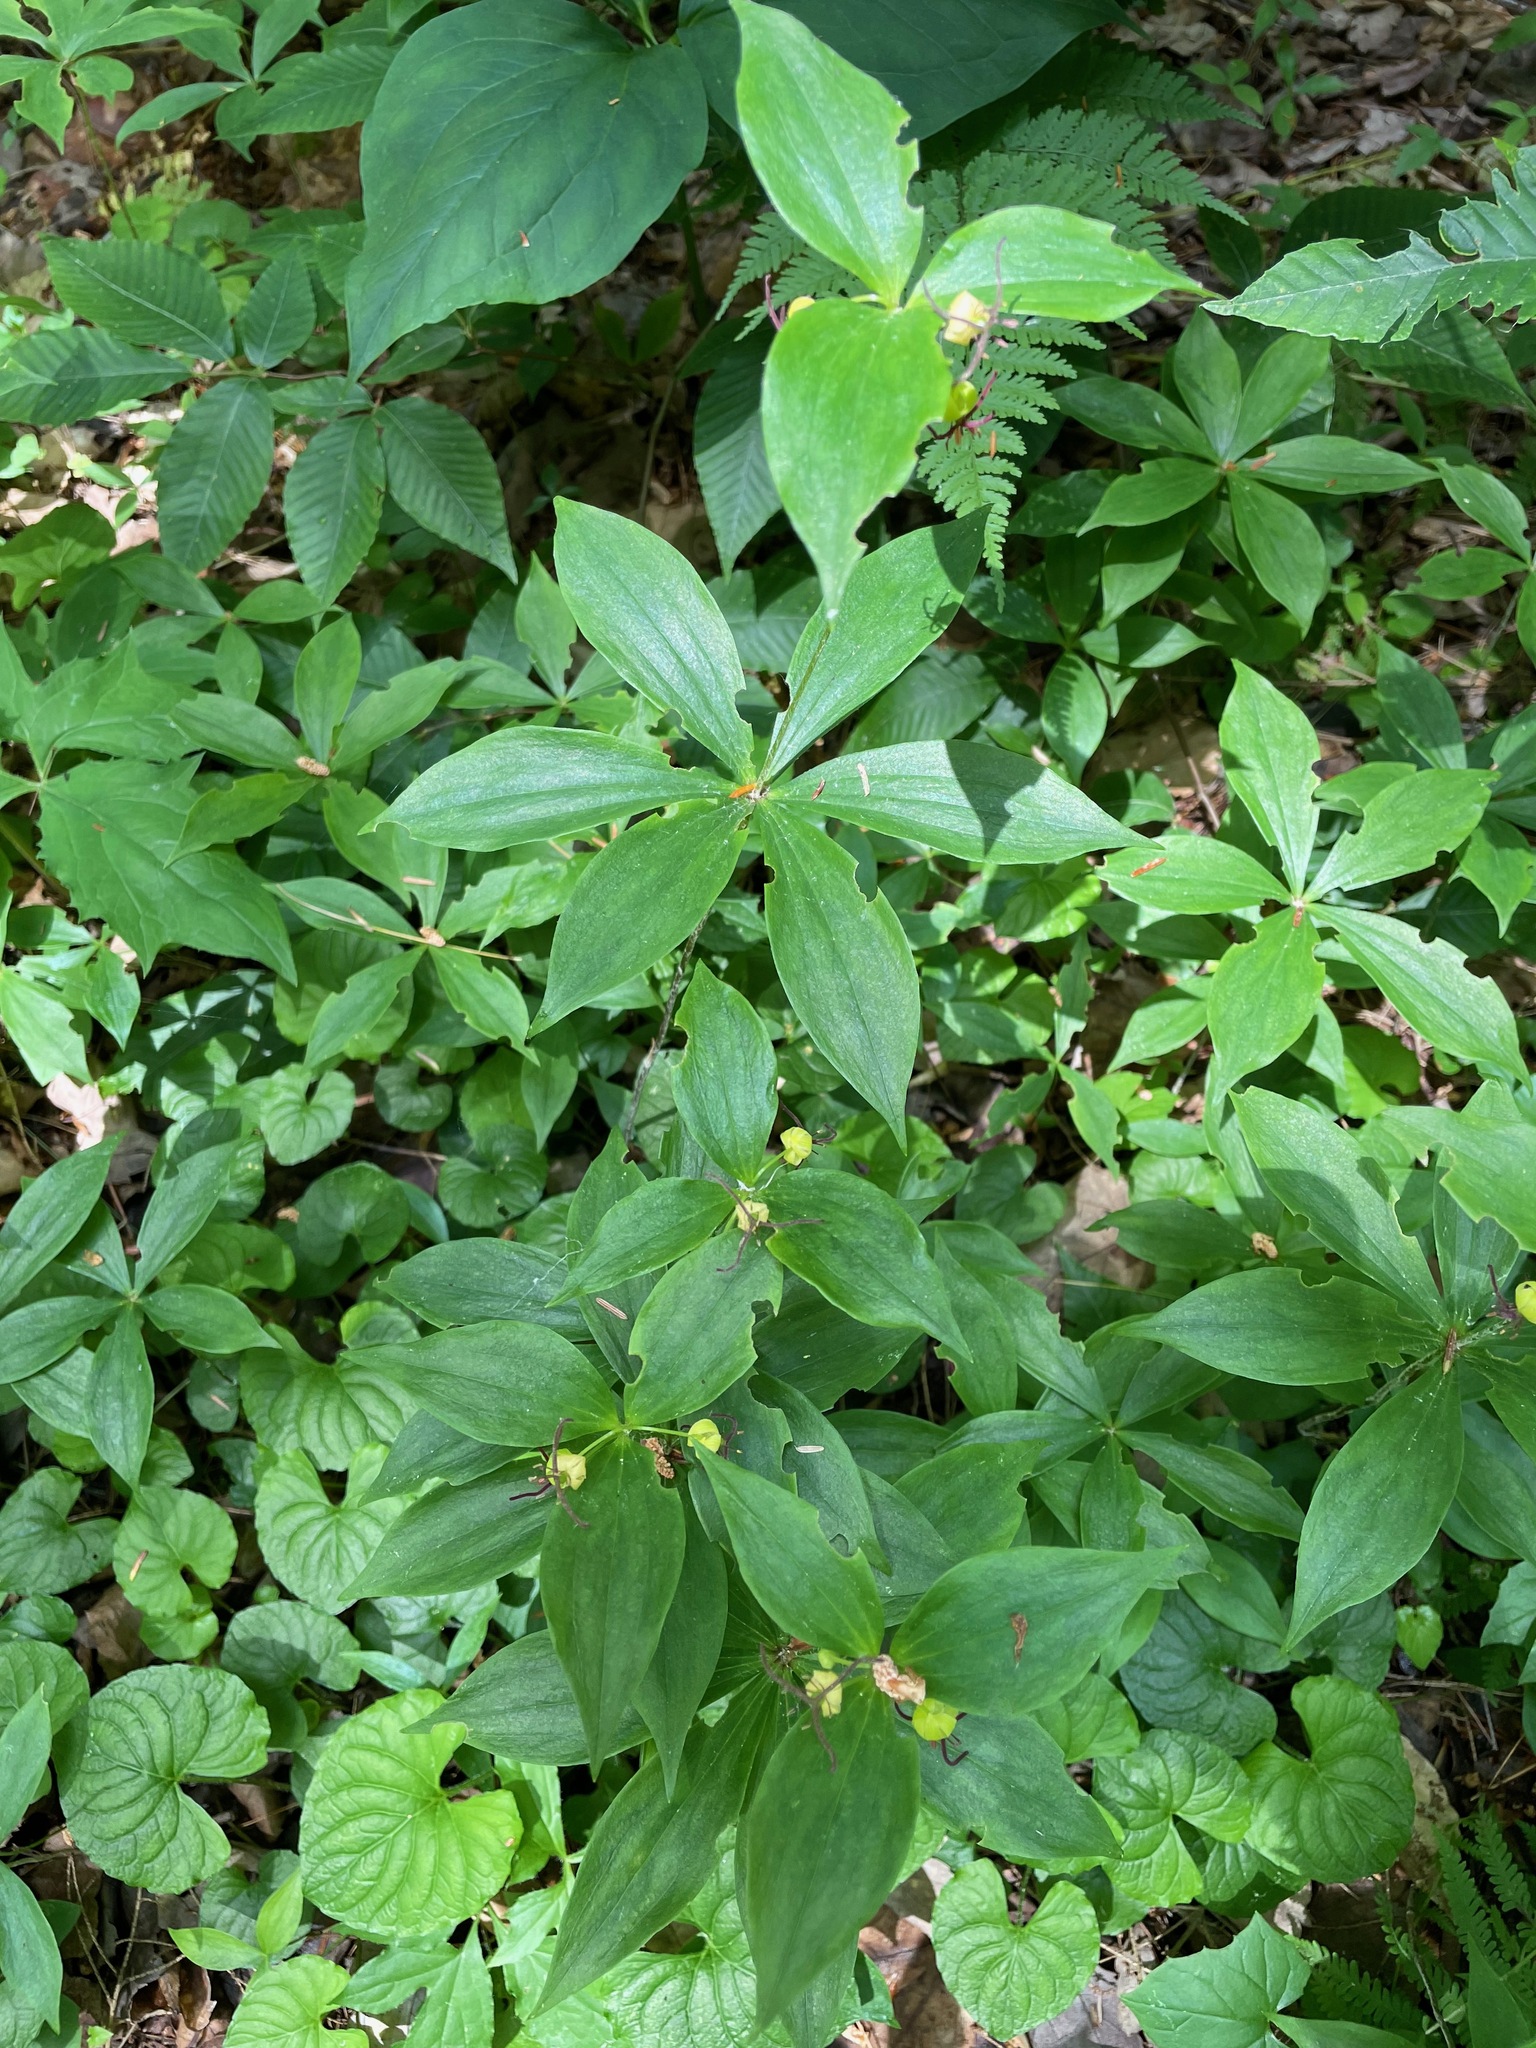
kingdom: Plantae
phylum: Tracheophyta
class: Liliopsida
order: Liliales
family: Liliaceae
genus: Medeola
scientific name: Medeola virginiana
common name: Indian cucumber-root
